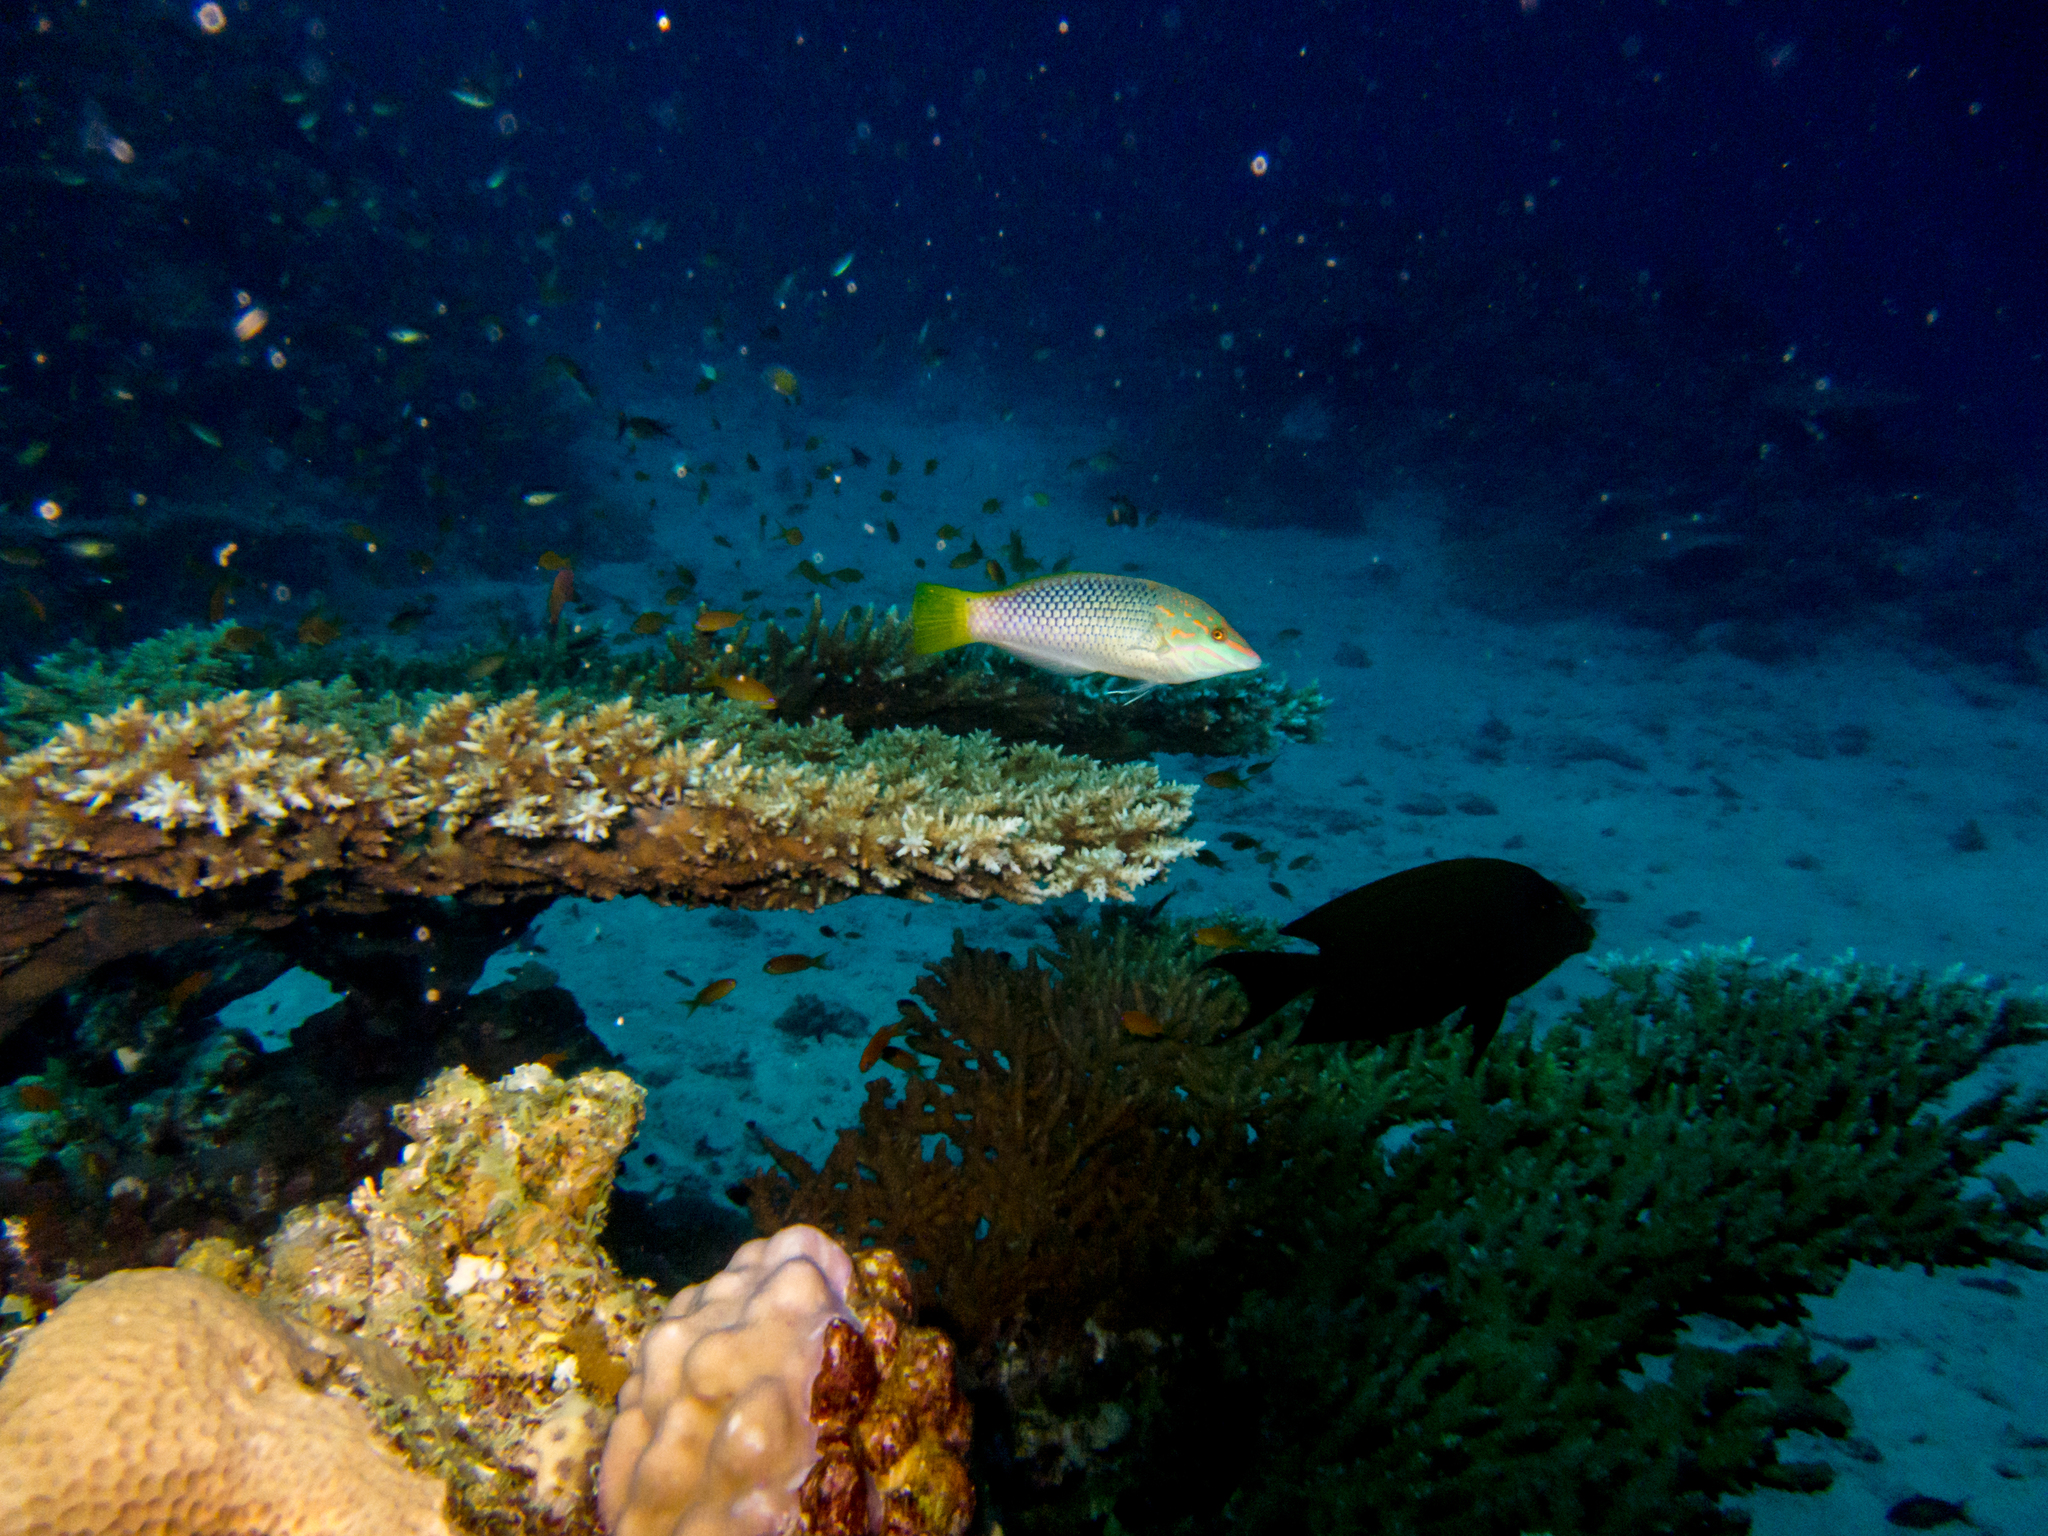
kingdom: Animalia
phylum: Chordata
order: Perciformes
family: Labridae
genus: Halichoeres
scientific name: Halichoeres hortulanus
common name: Checkerboard wrasse
